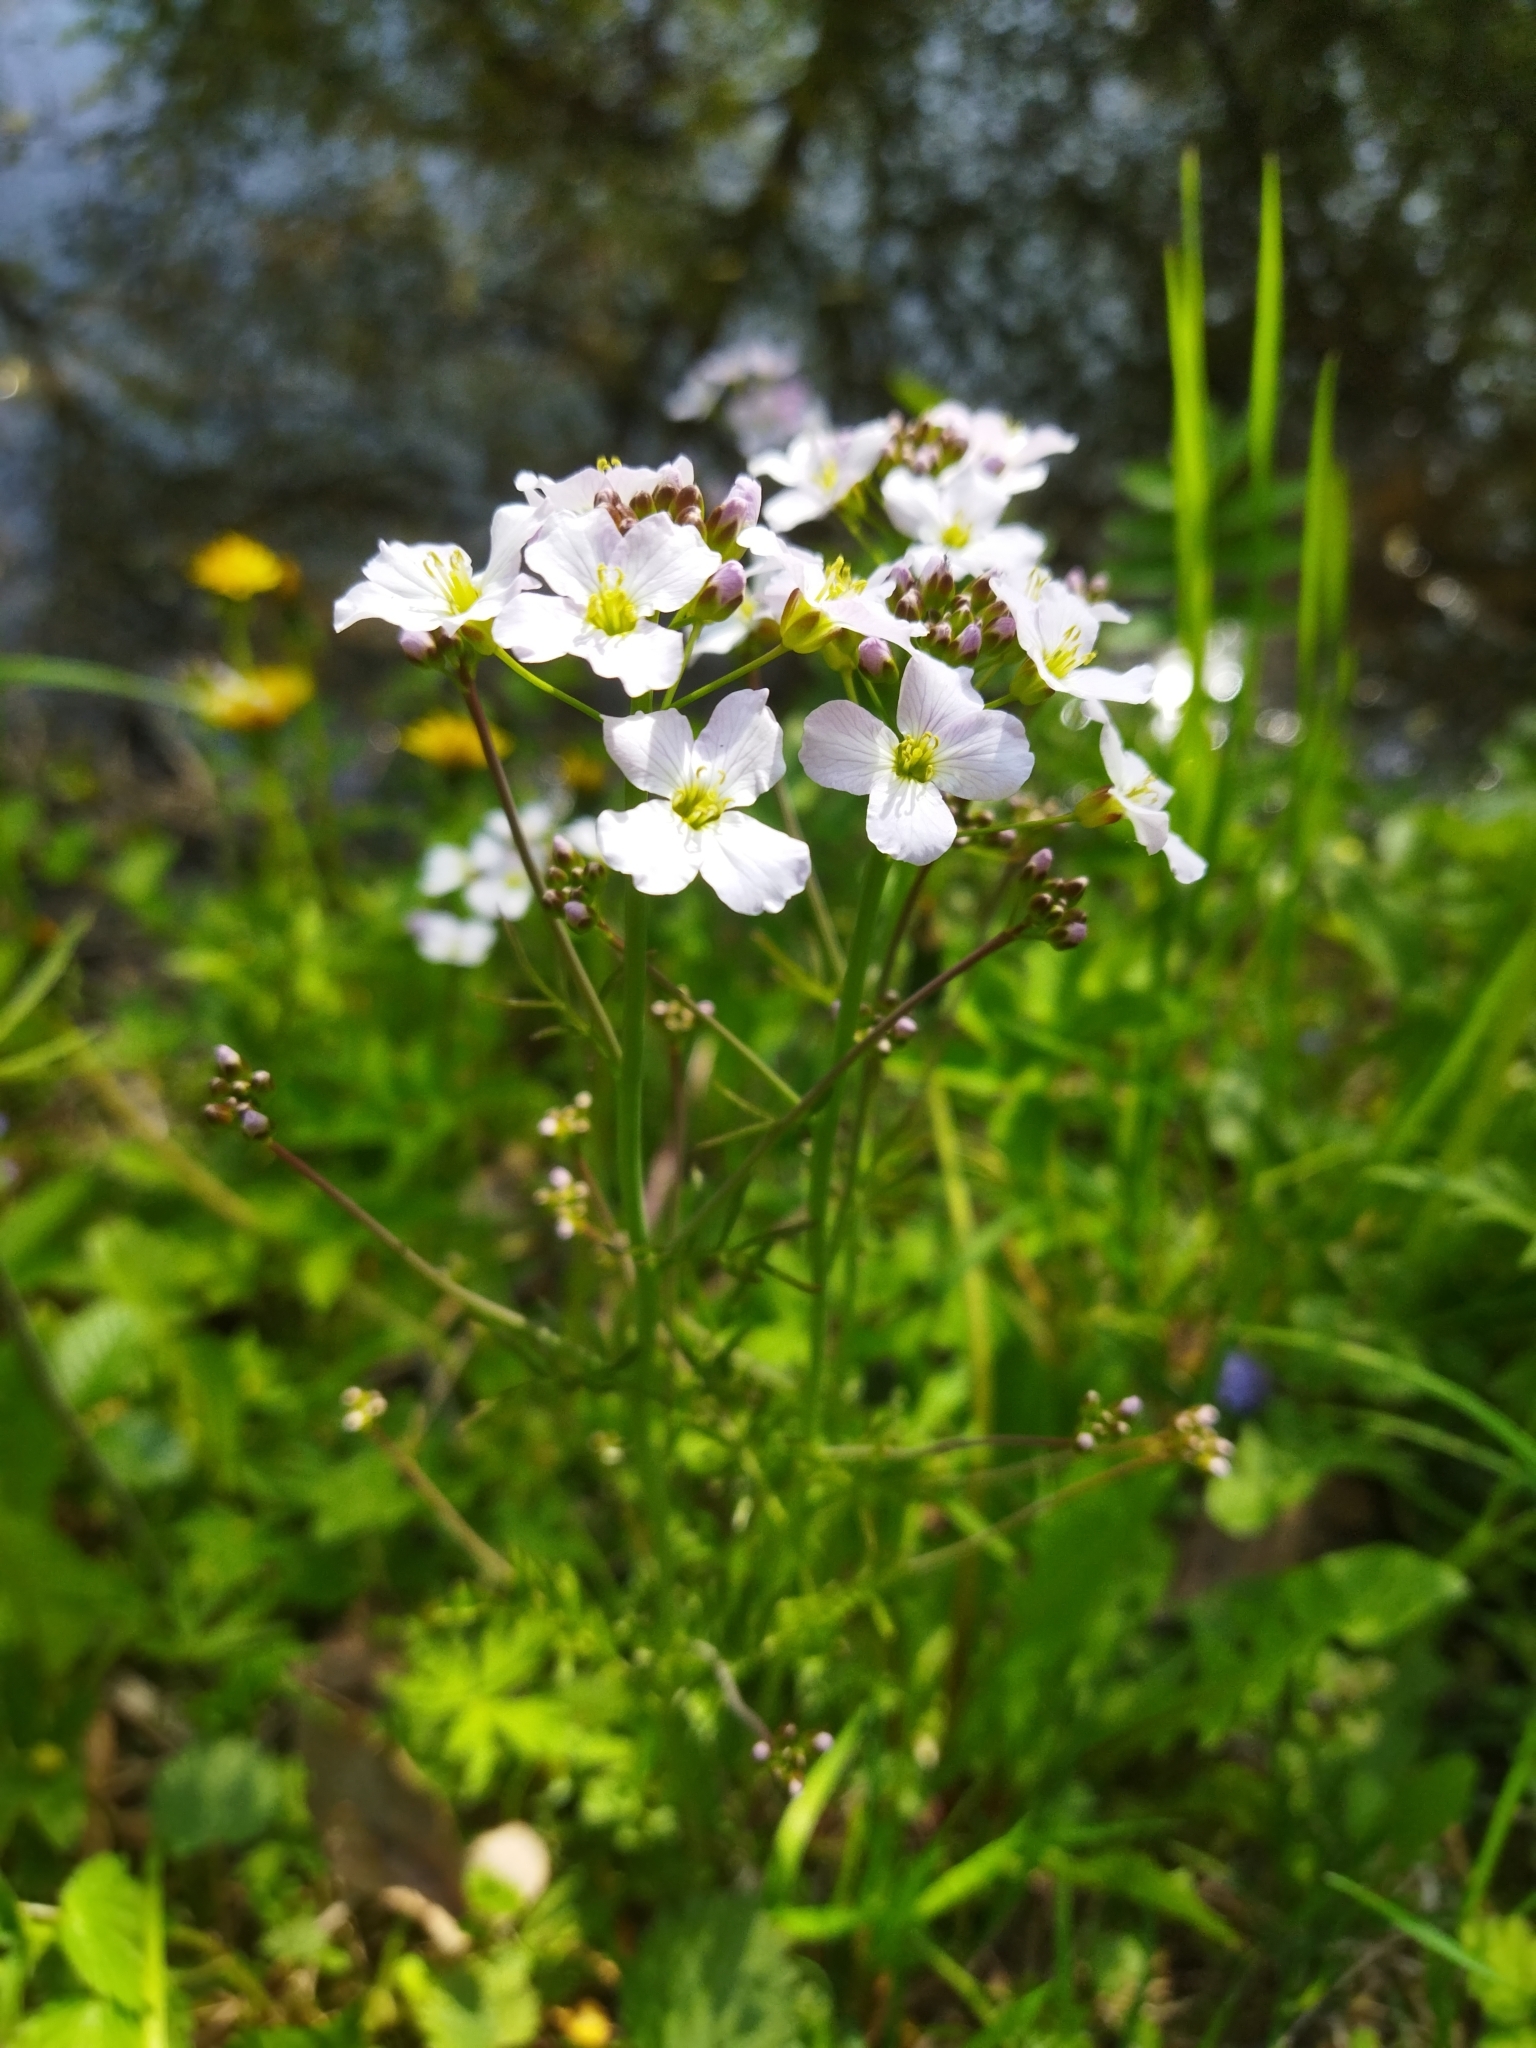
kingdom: Plantae
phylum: Tracheophyta
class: Magnoliopsida
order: Brassicales
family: Brassicaceae
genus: Cardamine
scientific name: Cardamine pratensis
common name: Cuckoo flower
